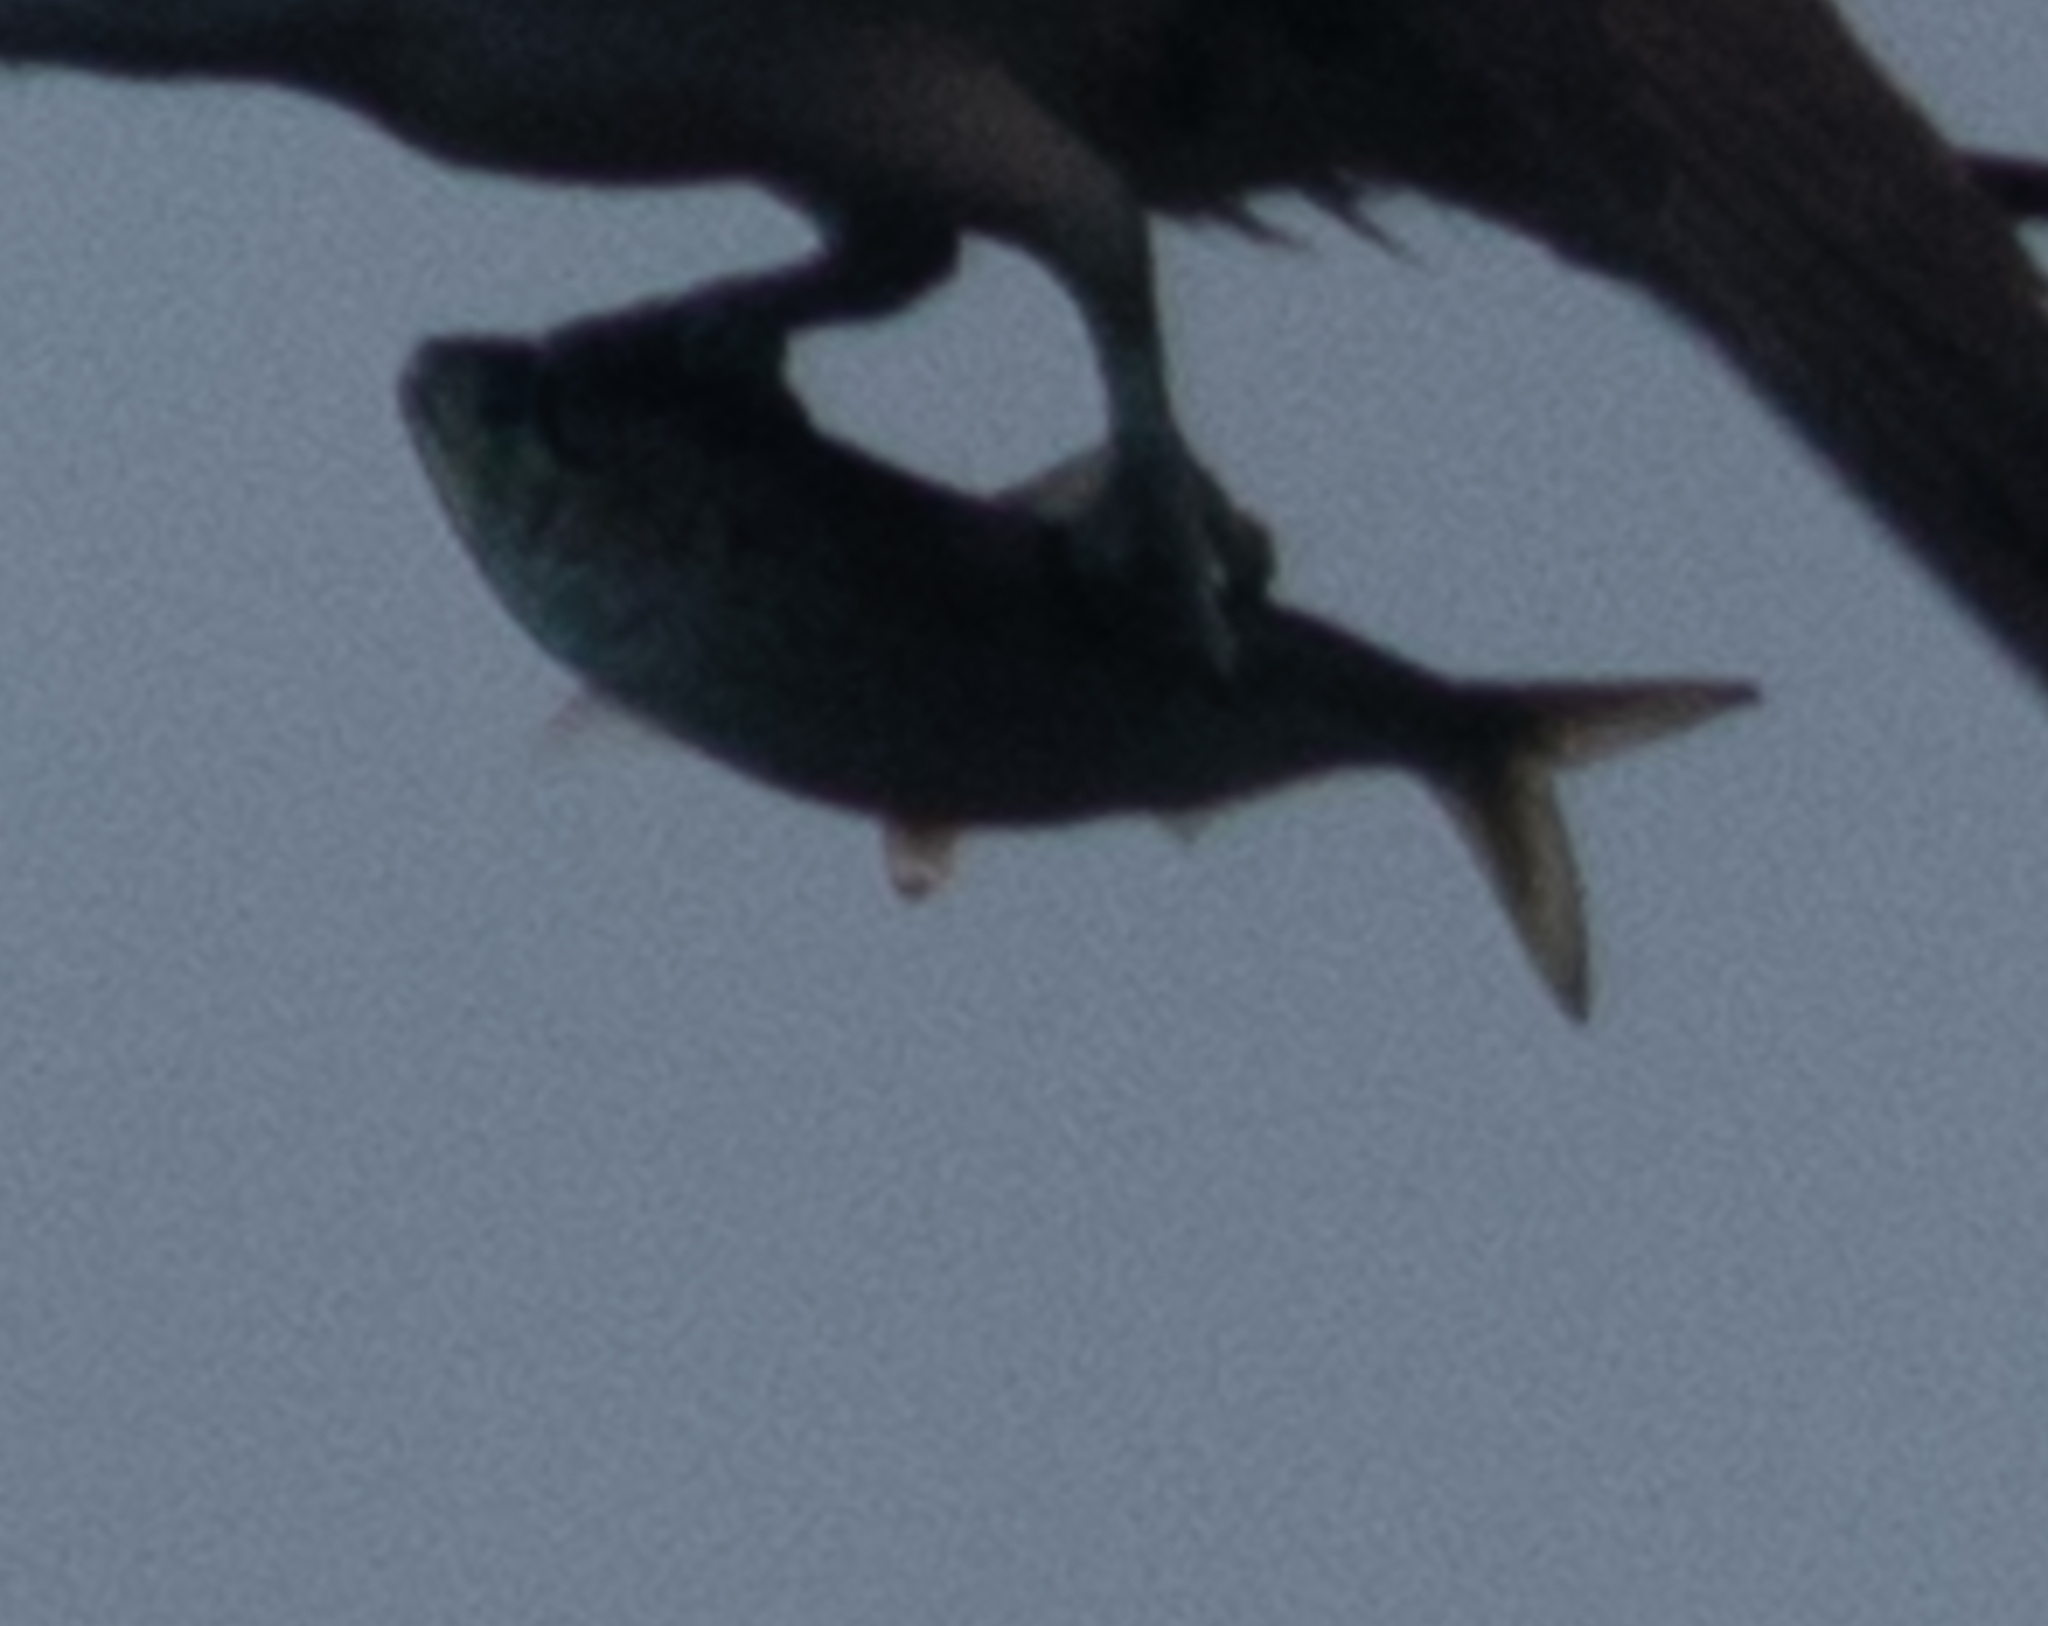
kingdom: Animalia
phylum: Chordata
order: Clupeiformes
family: Clupeidae
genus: Brevoortia
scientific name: Brevoortia tyrannus
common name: Atlantic menhaden
